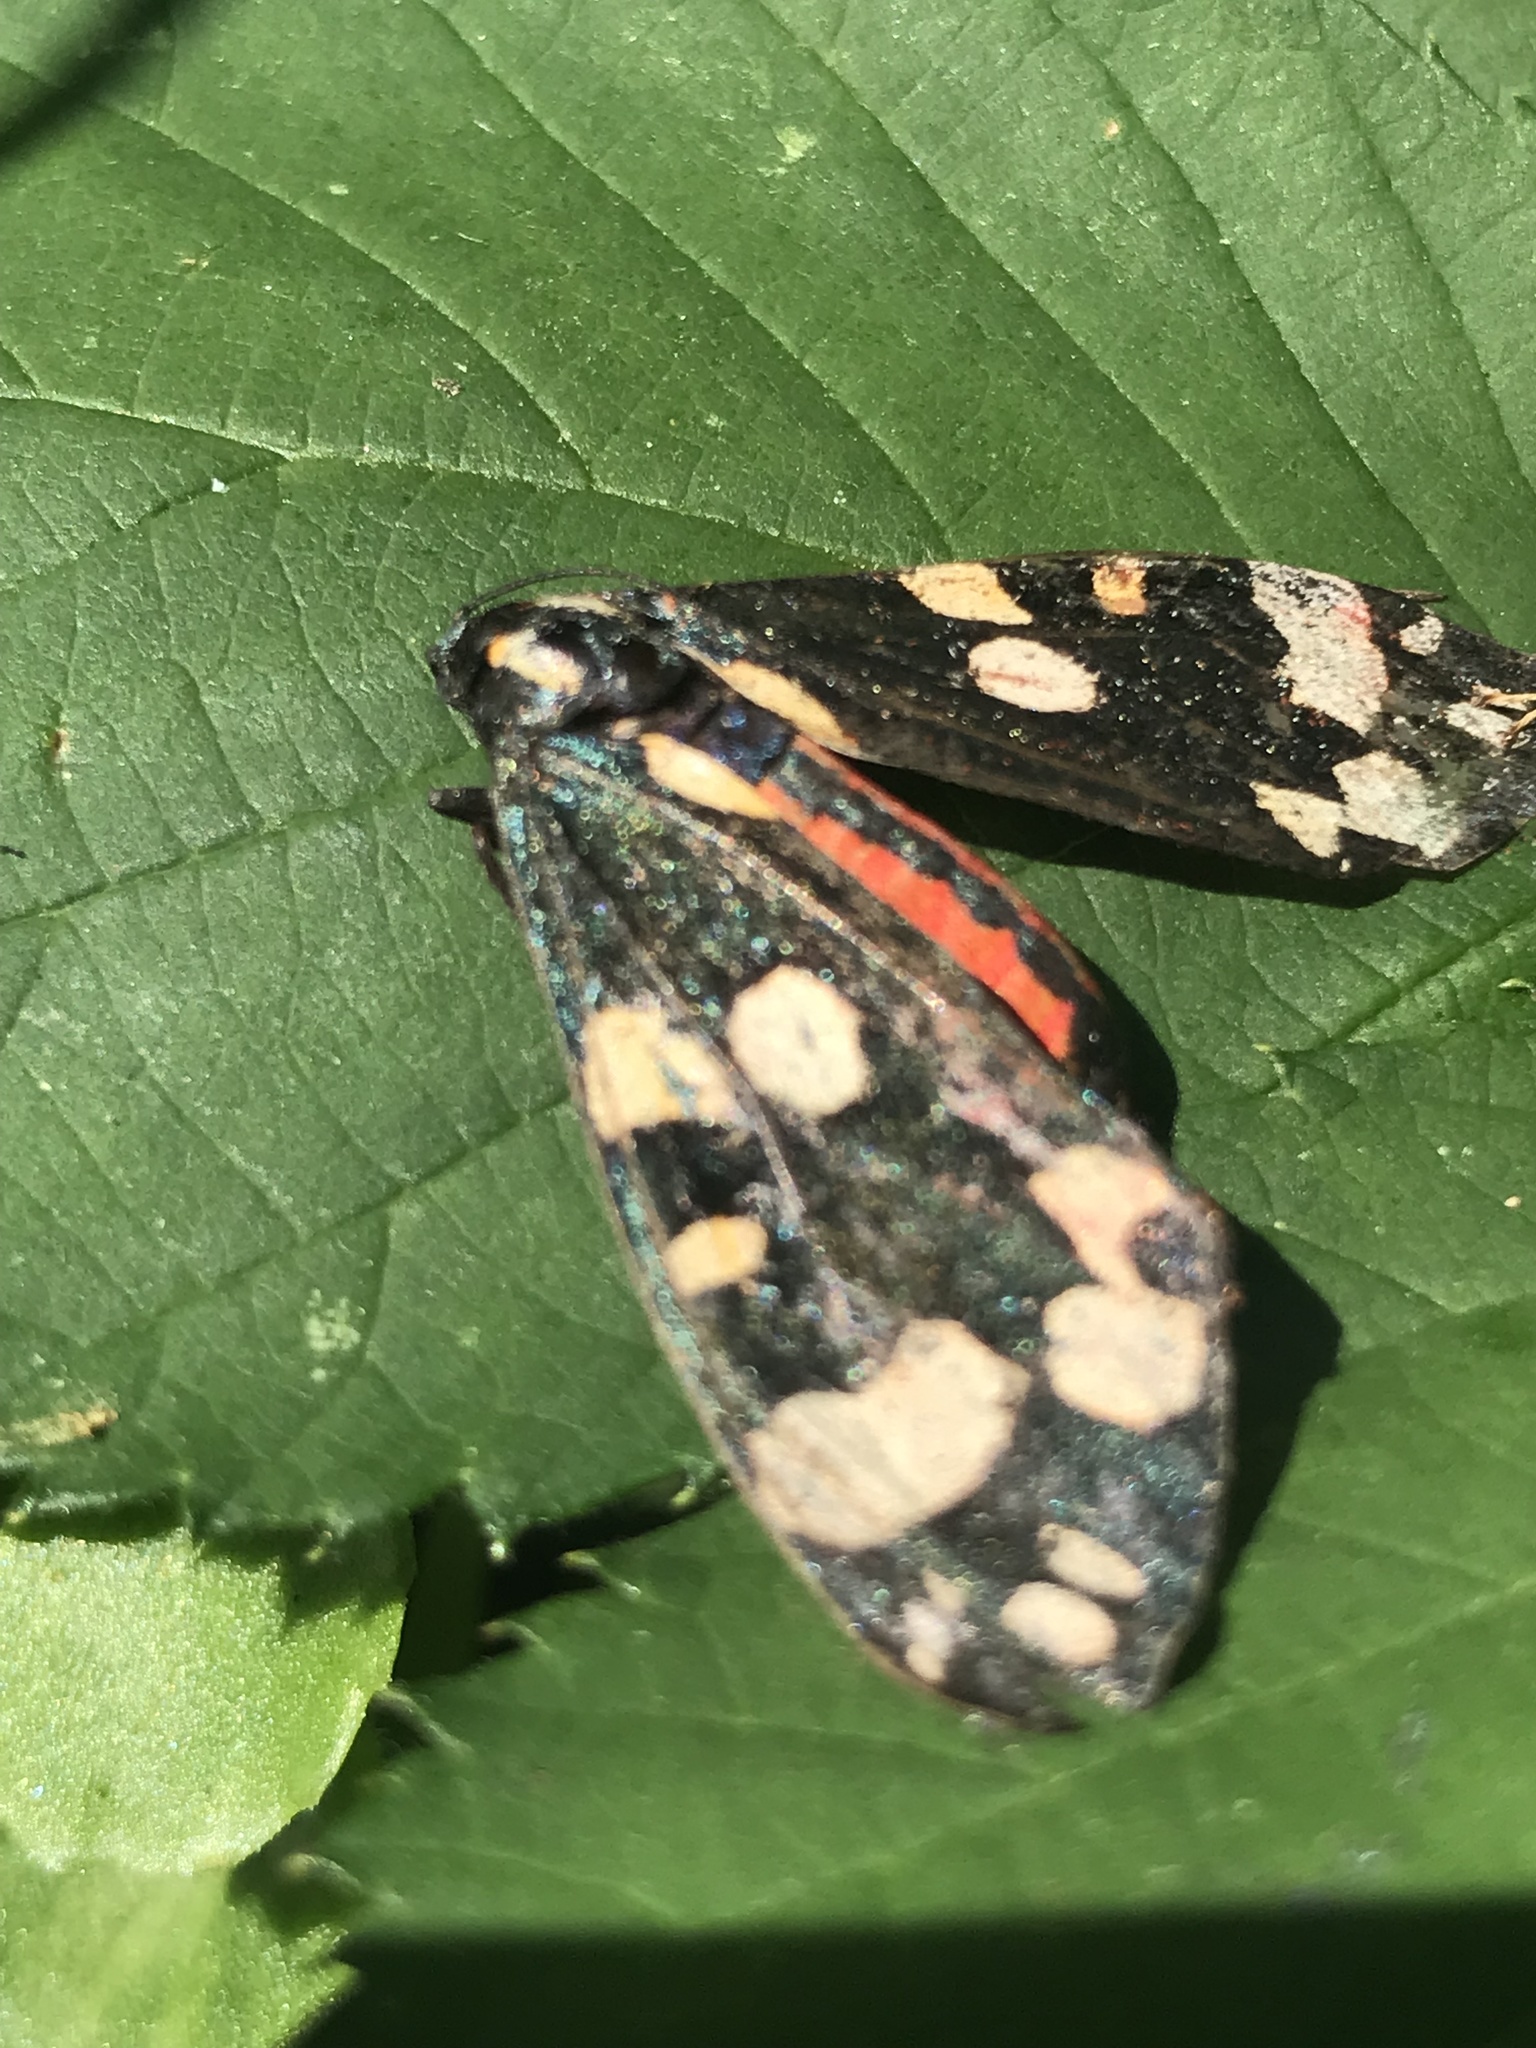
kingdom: Animalia
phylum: Arthropoda
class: Insecta
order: Lepidoptera
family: Erebidae
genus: Callimorpha
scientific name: Callimorpha dominula
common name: Scarlet tiger
